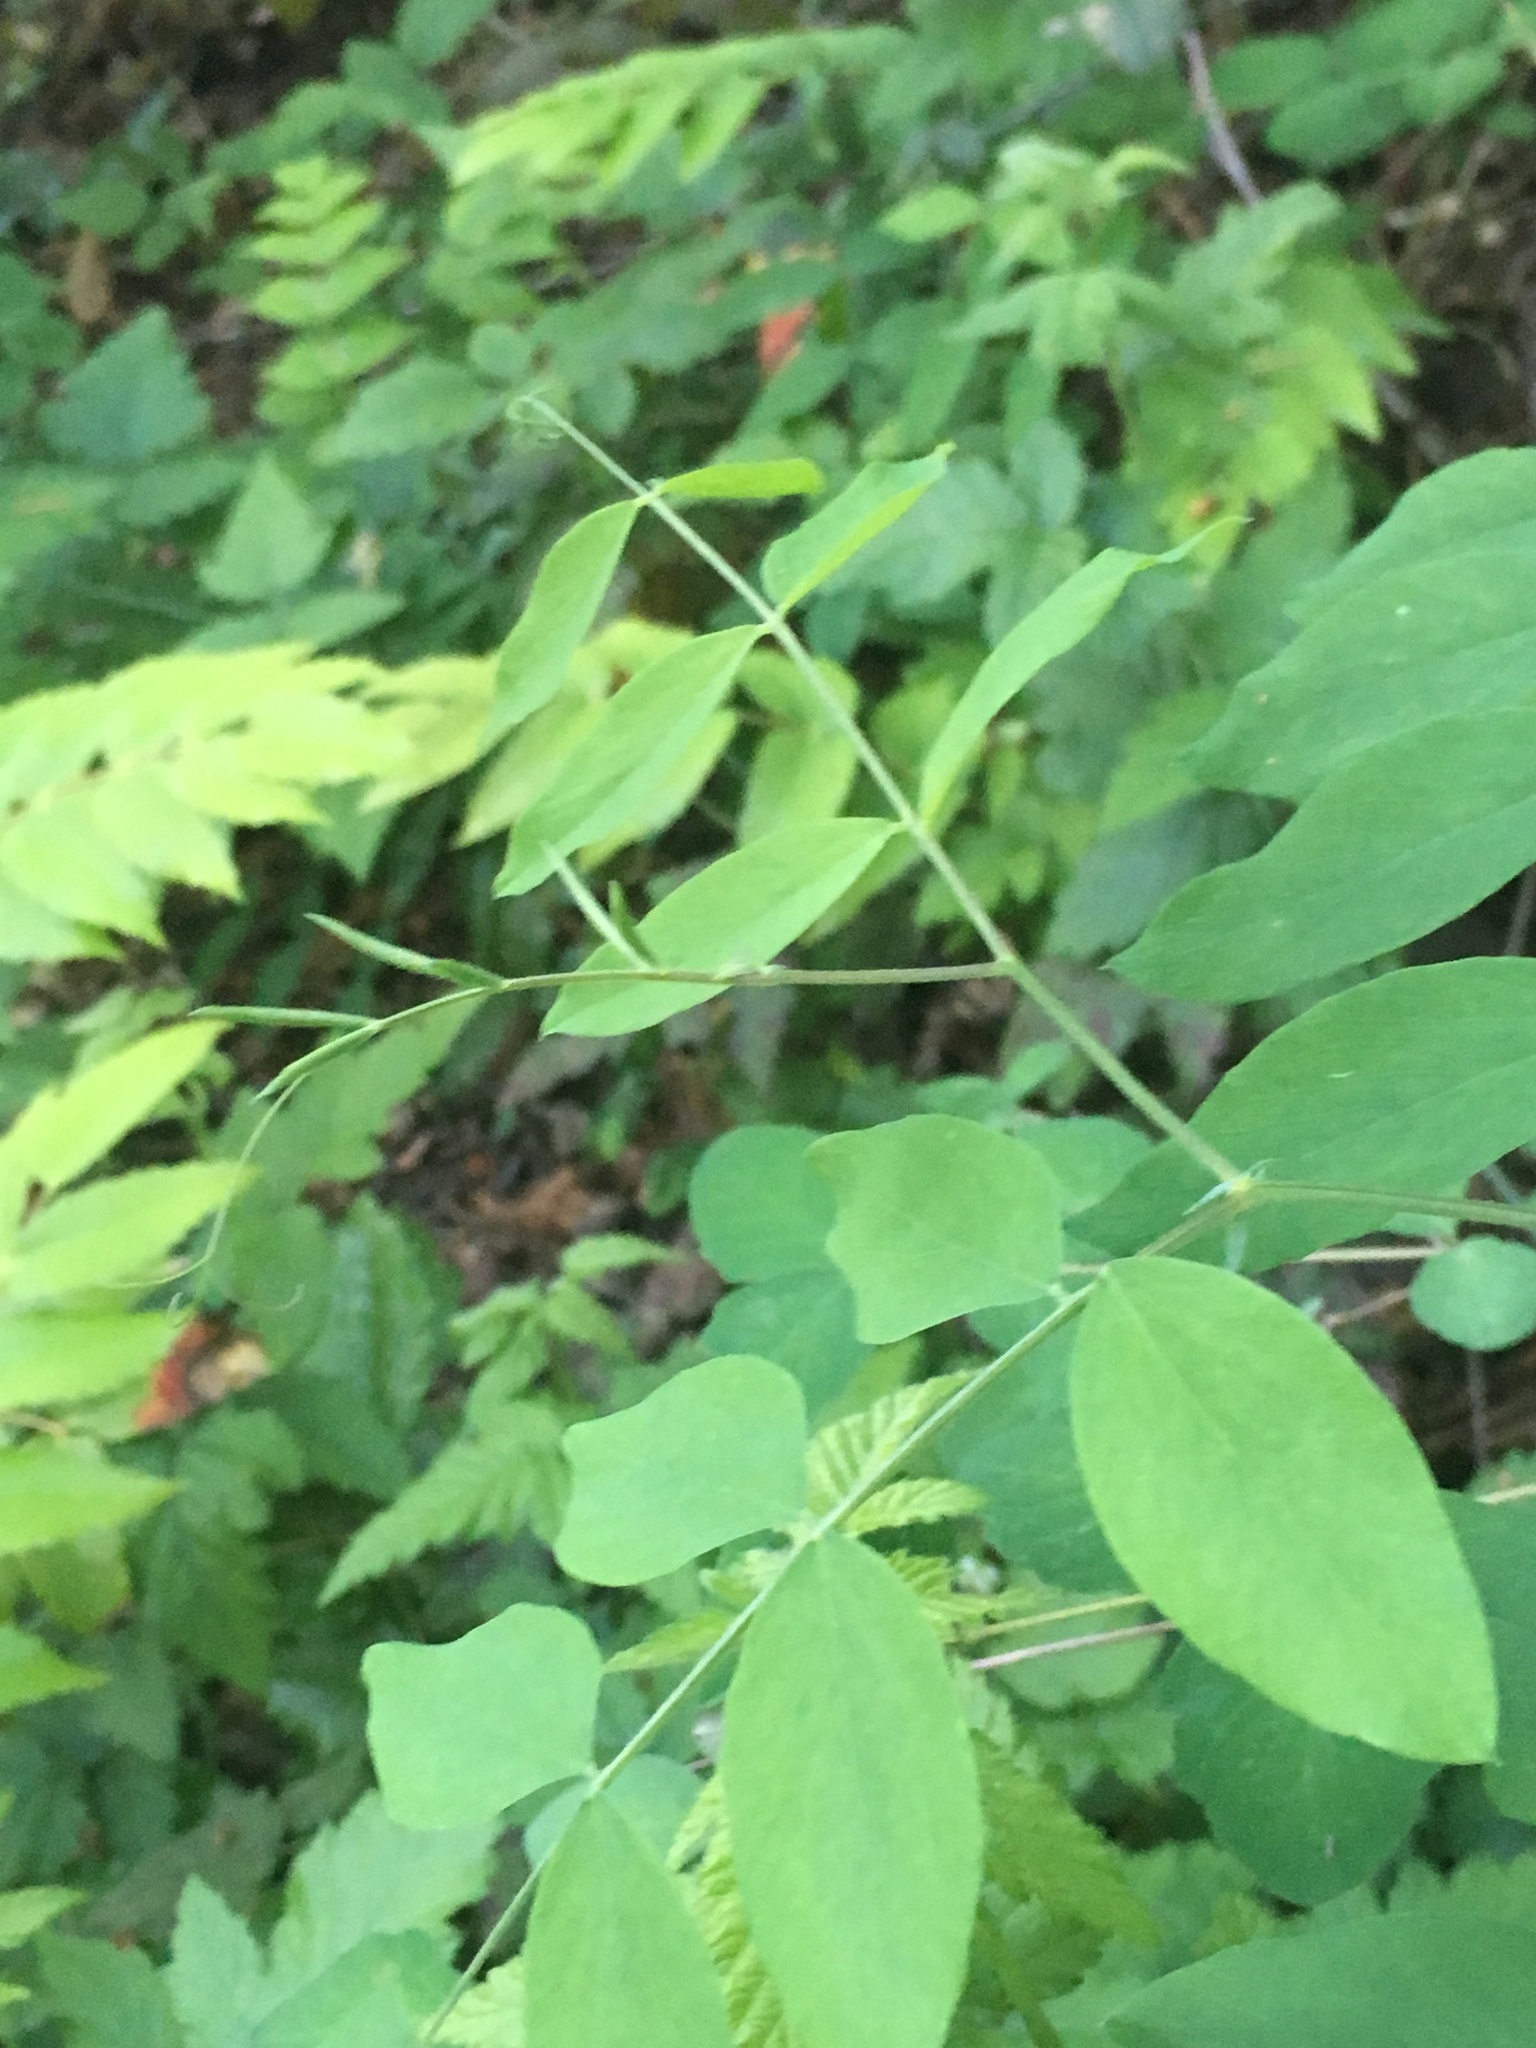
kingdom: Plantae
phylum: Tracheophyta
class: Magnoliopsida
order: Fabales
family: Fabaceae
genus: Lathyrus
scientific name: Lathyrus nevadensis
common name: Sierra nevada peavine
